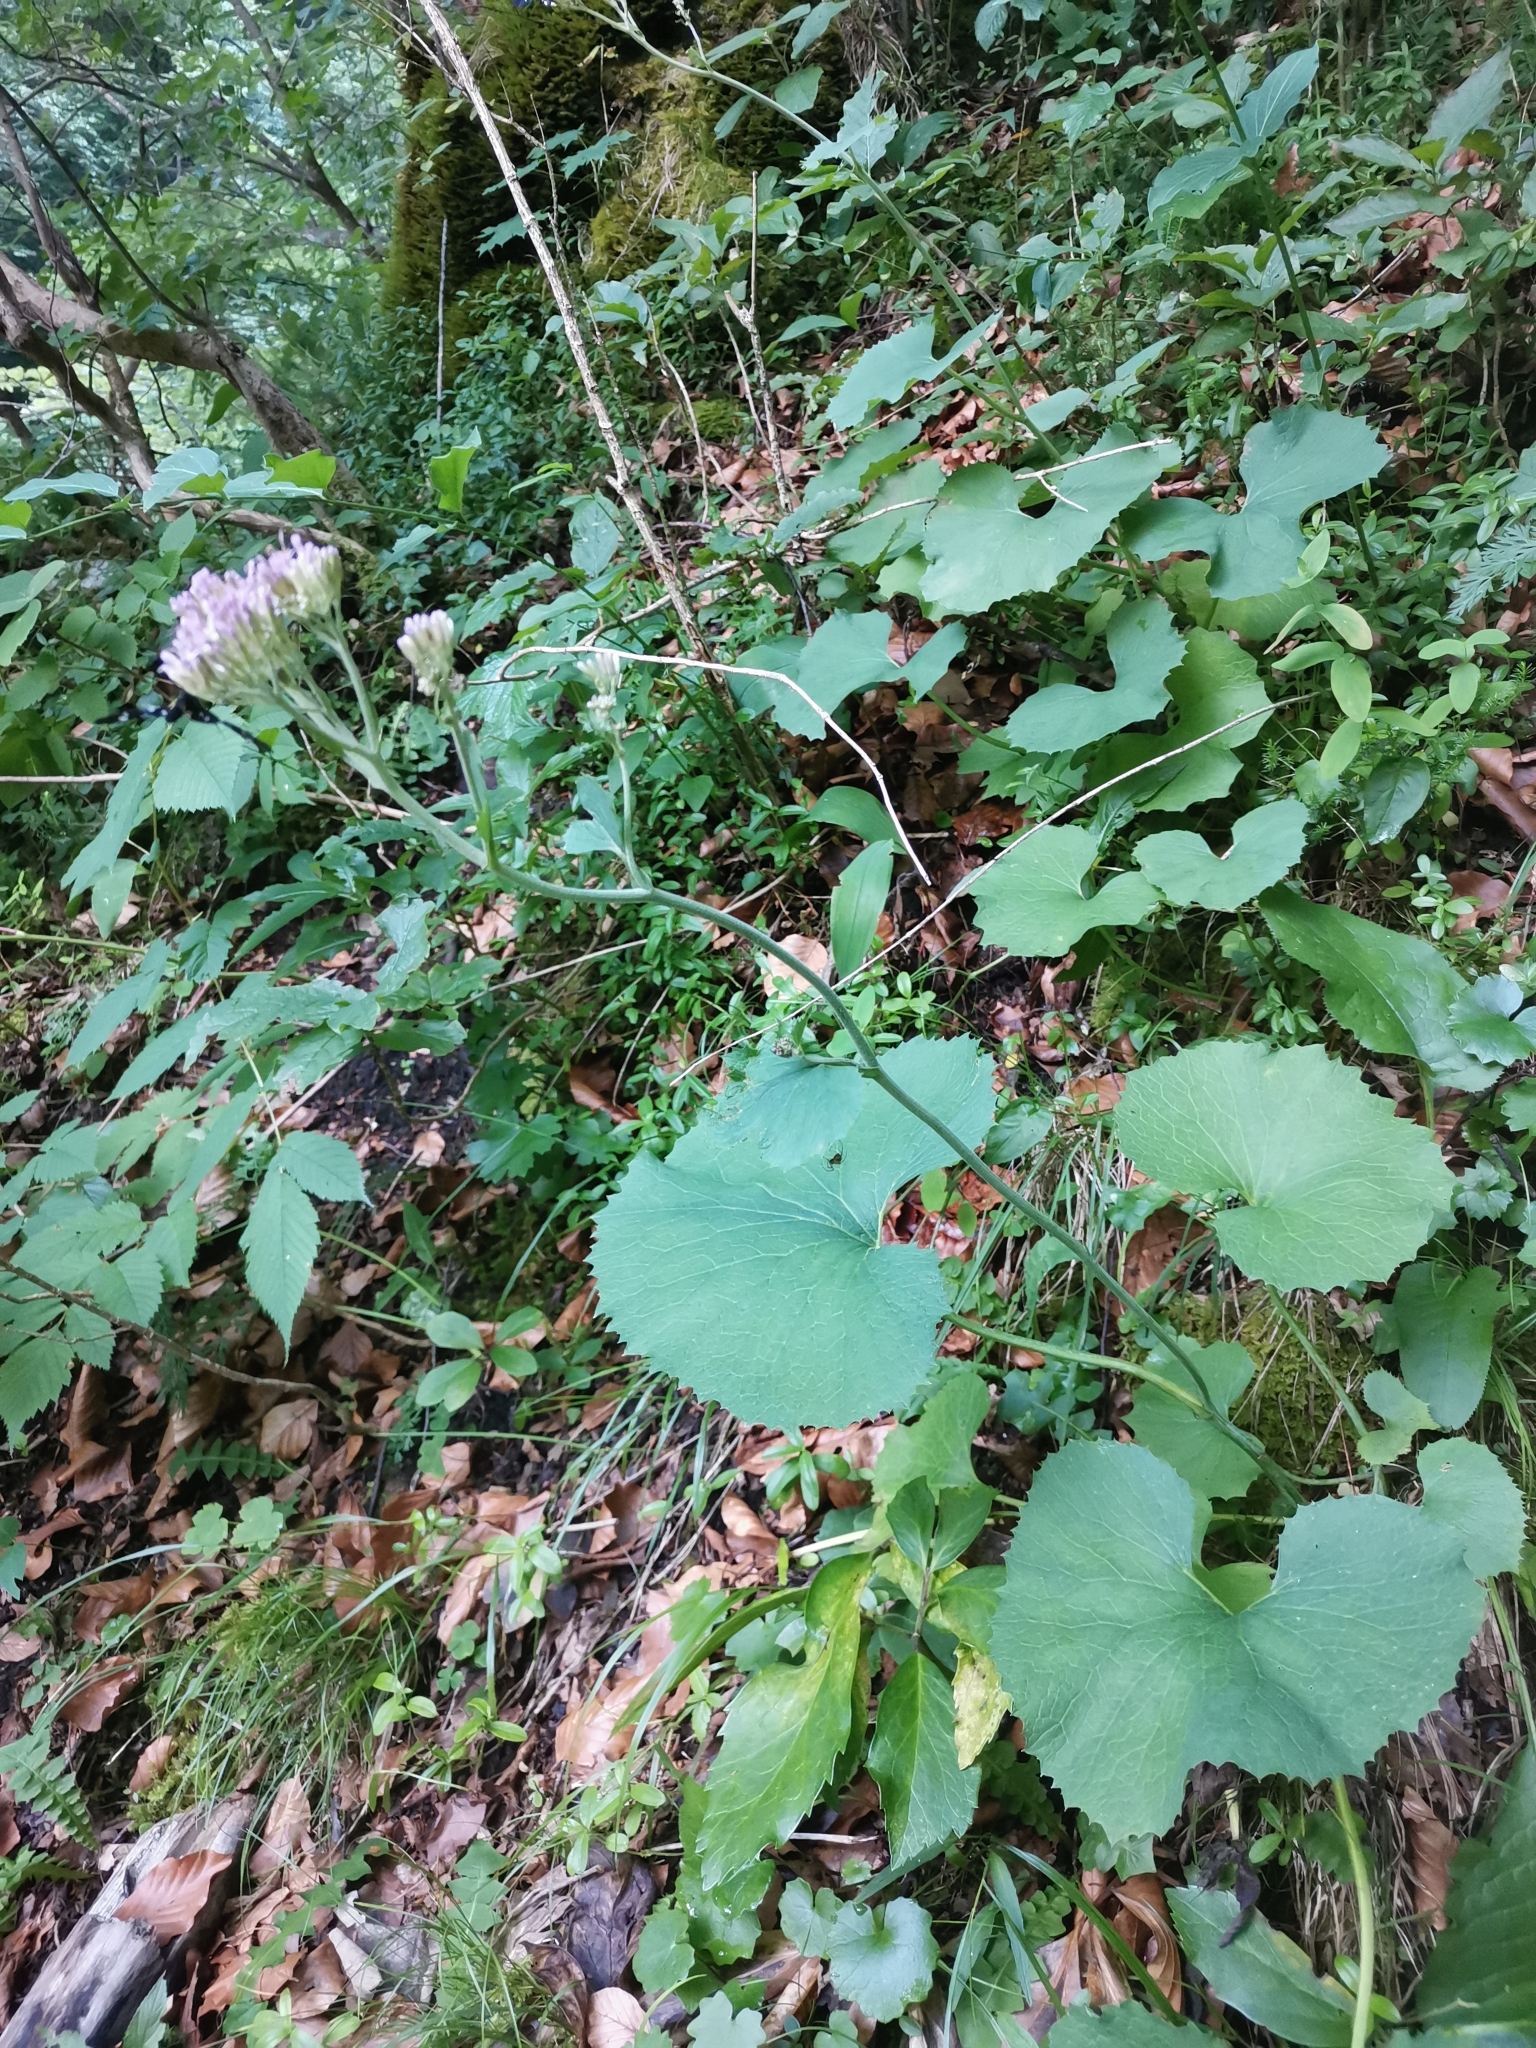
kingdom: Plantae
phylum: Tracheophyta
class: Magnoliopsida
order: Asterales
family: Asteraceae
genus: Adenostyles
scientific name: Adenostyles alpina
